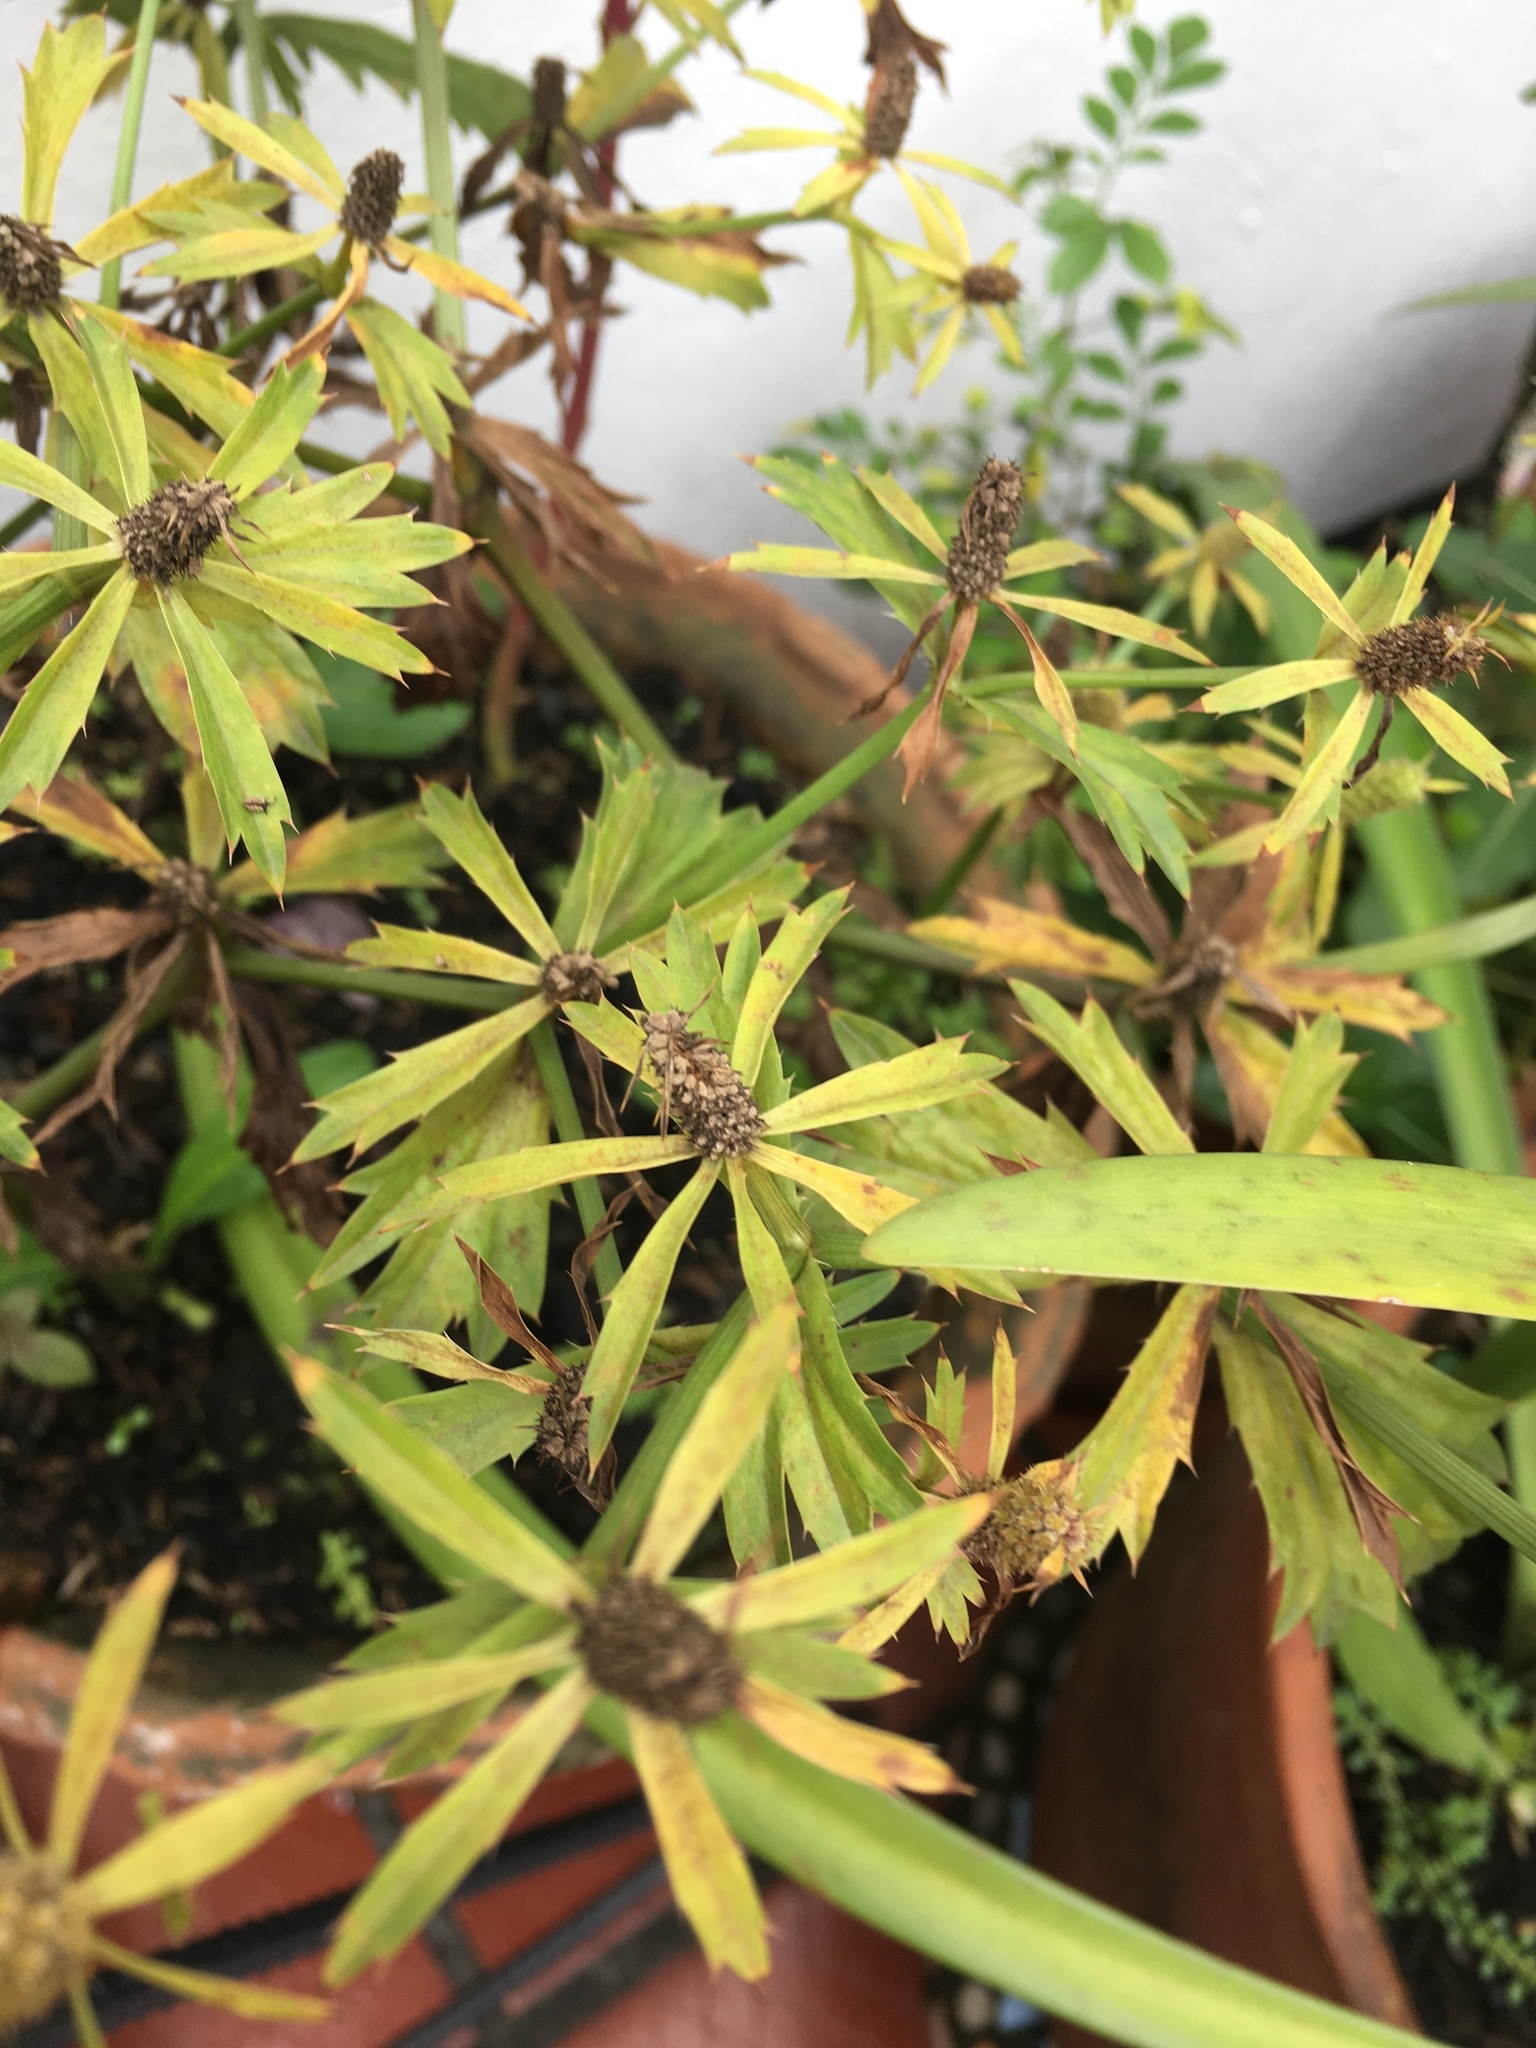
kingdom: Plantae
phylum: Tracheophyta
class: Magnoliopsida
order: Apiales
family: Apiaceae
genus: Eryngium
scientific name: Eryngium foetidum
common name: Fitweed
